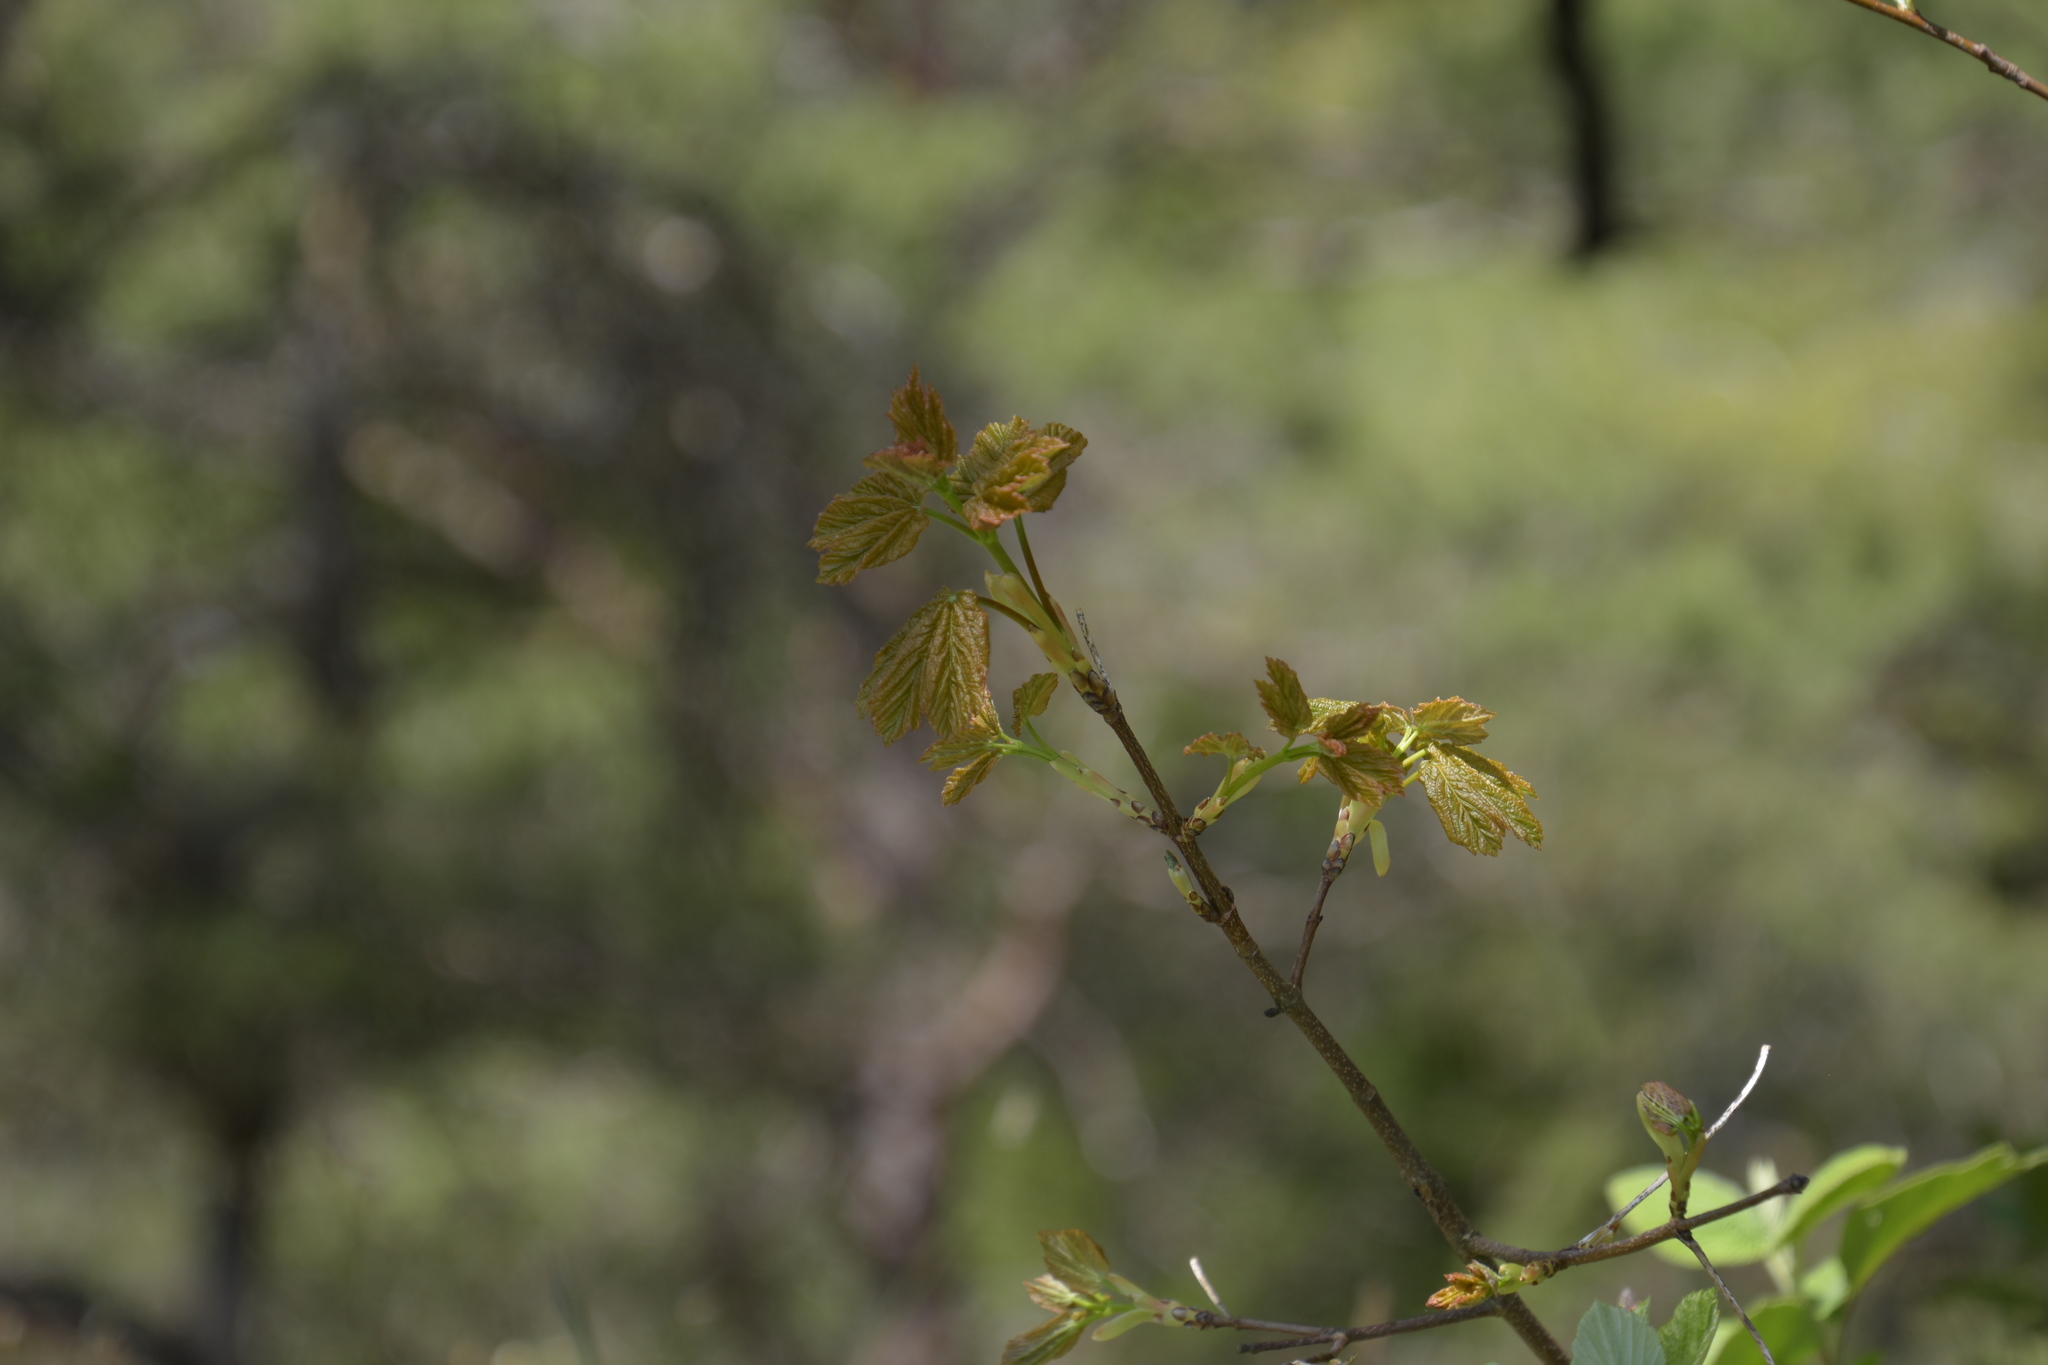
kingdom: Plantae
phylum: Tracheophyta
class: Magnoliopsida
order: Sapindales
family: Sapindaceae
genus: Acer
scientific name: Acer opalus
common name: Italian maple
